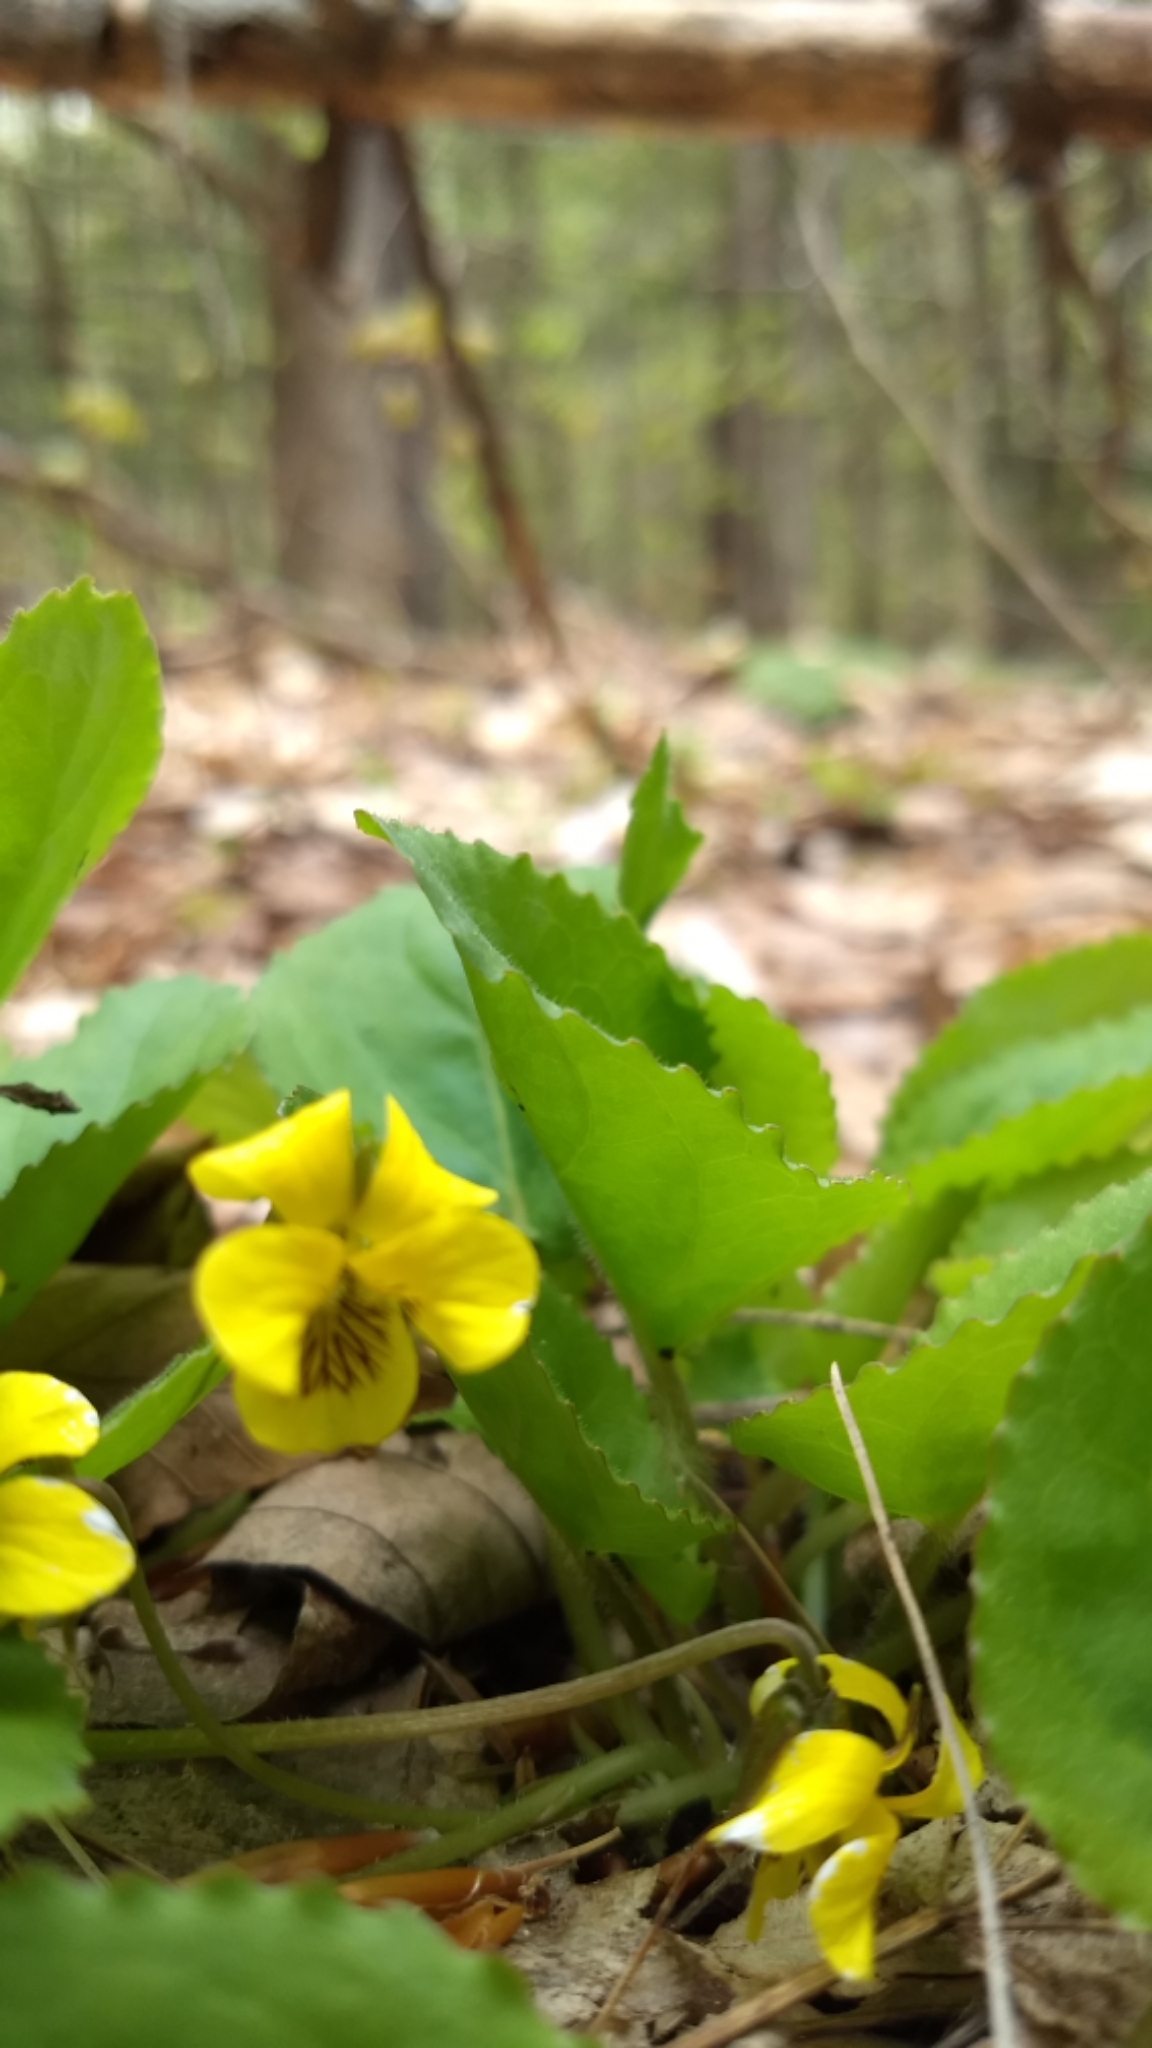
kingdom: Plantae
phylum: Tracheophyta
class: Magnoliopsida
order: Malpighiales
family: Violaceae
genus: Viola
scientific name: Viola rotundifolia
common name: Early yellow violet
